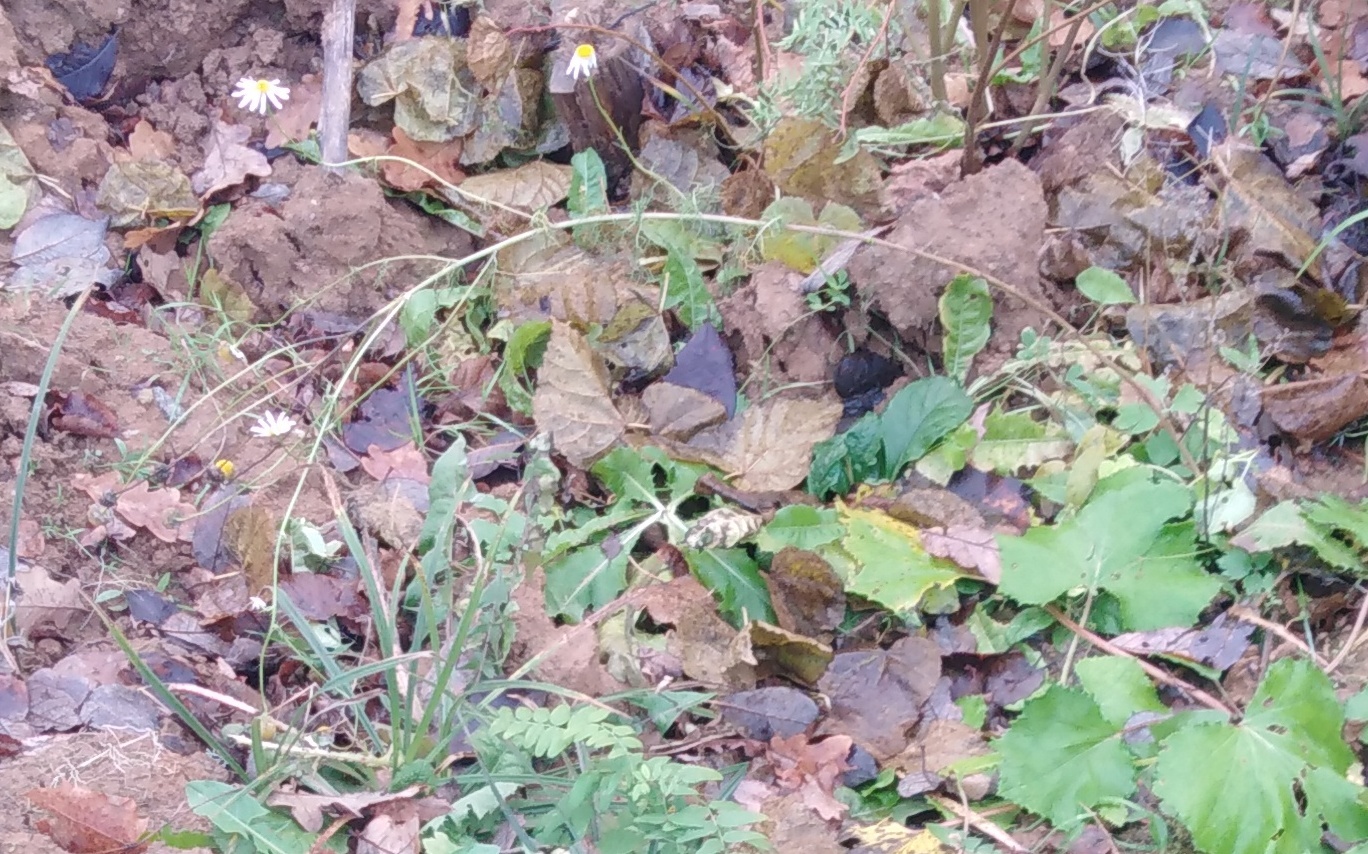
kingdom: Plantae
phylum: Tracheophyta
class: Magnoliopsida
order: Asterales
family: Asteraceae
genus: Tripleurospermum
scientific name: Tripleurospermum inodorum
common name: Scentless mayweed
